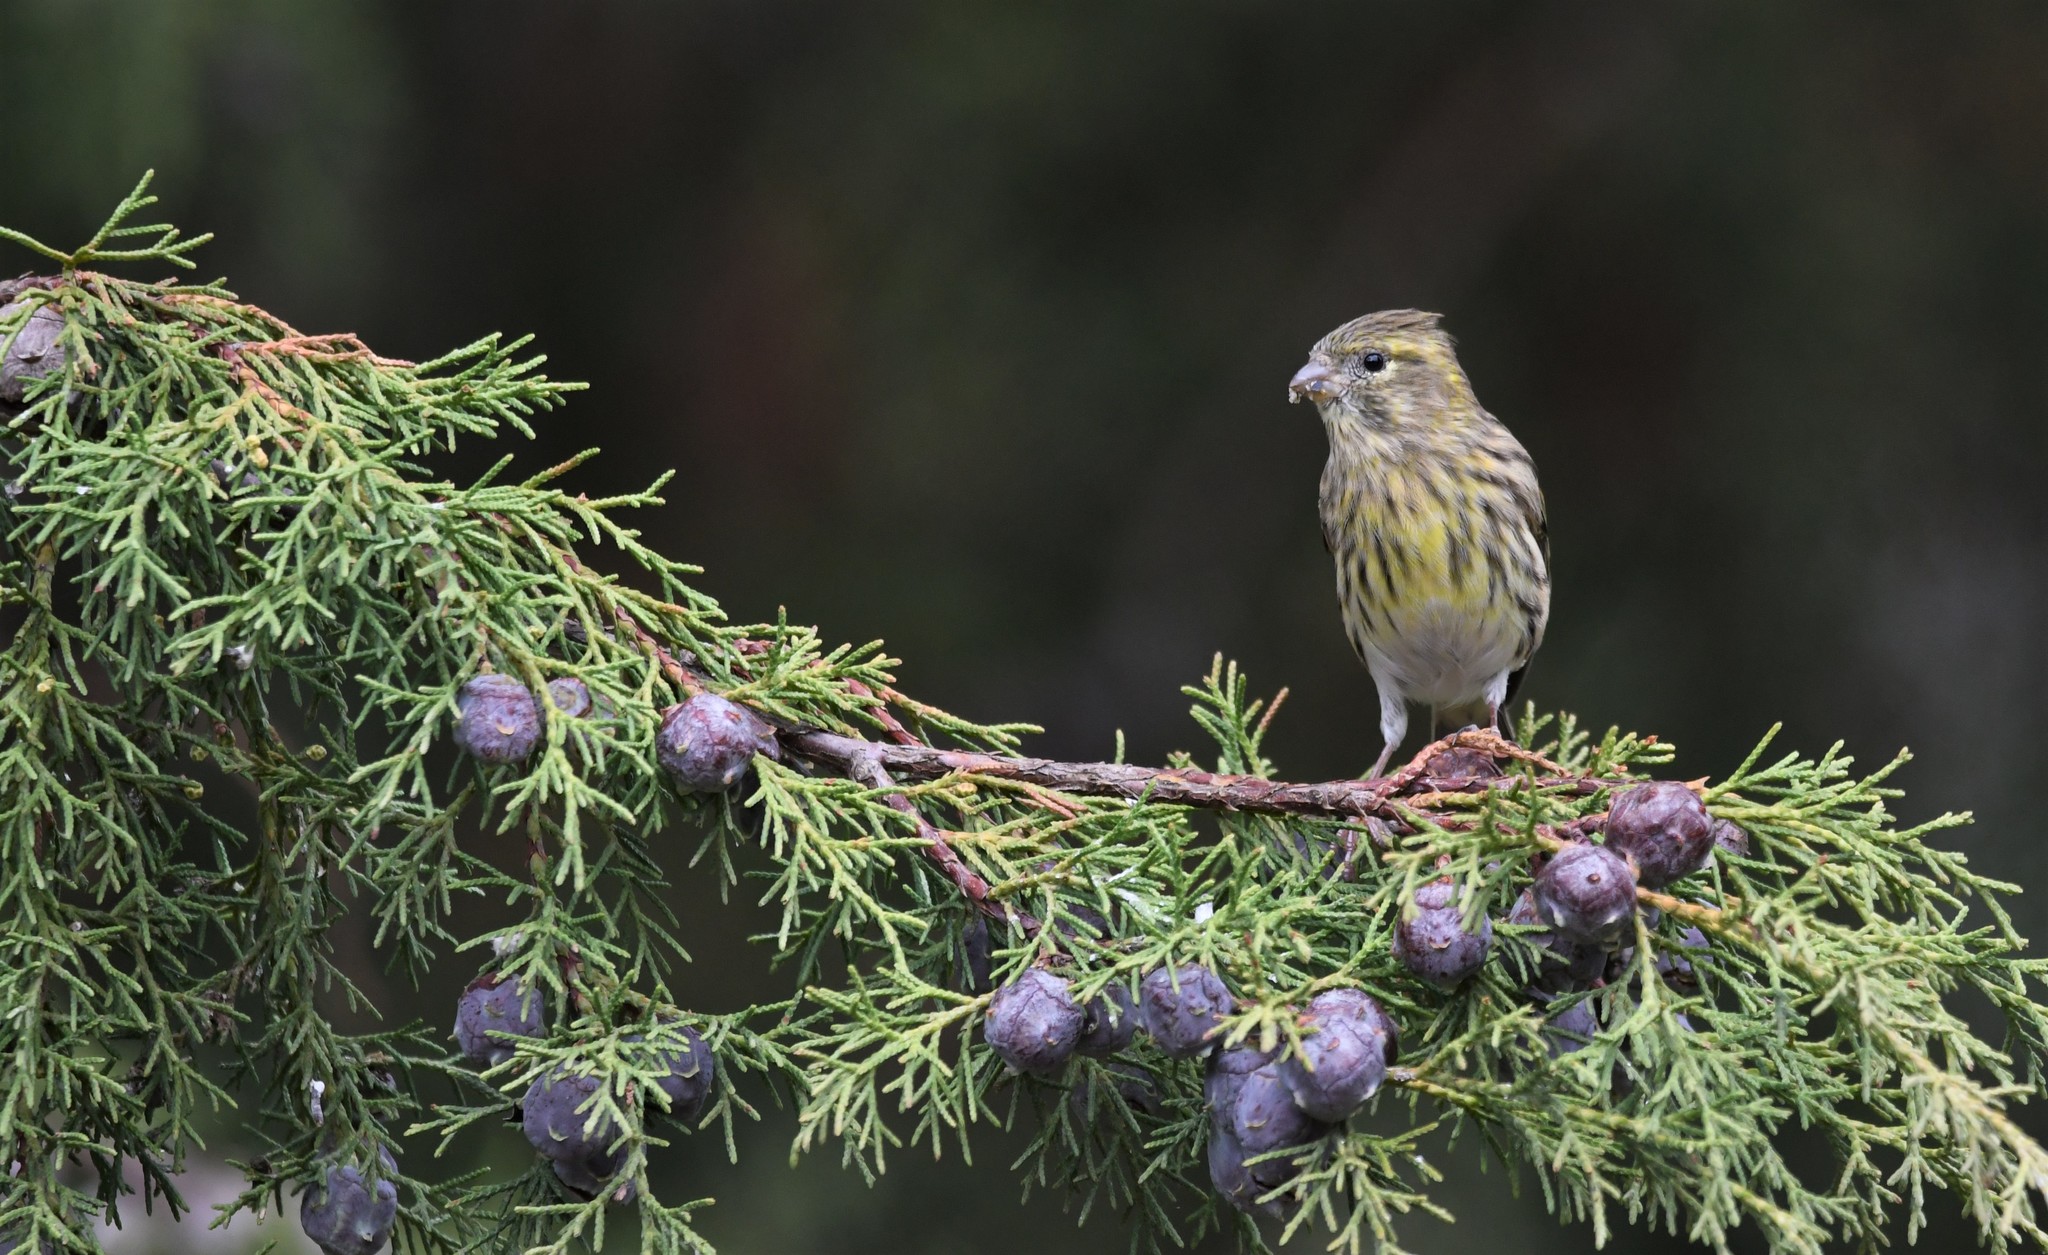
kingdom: Animalia
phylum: Chordata
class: Aves
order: Passeriformes
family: Fringillidae
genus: Serinus
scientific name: Serinus serinus
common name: European serin
